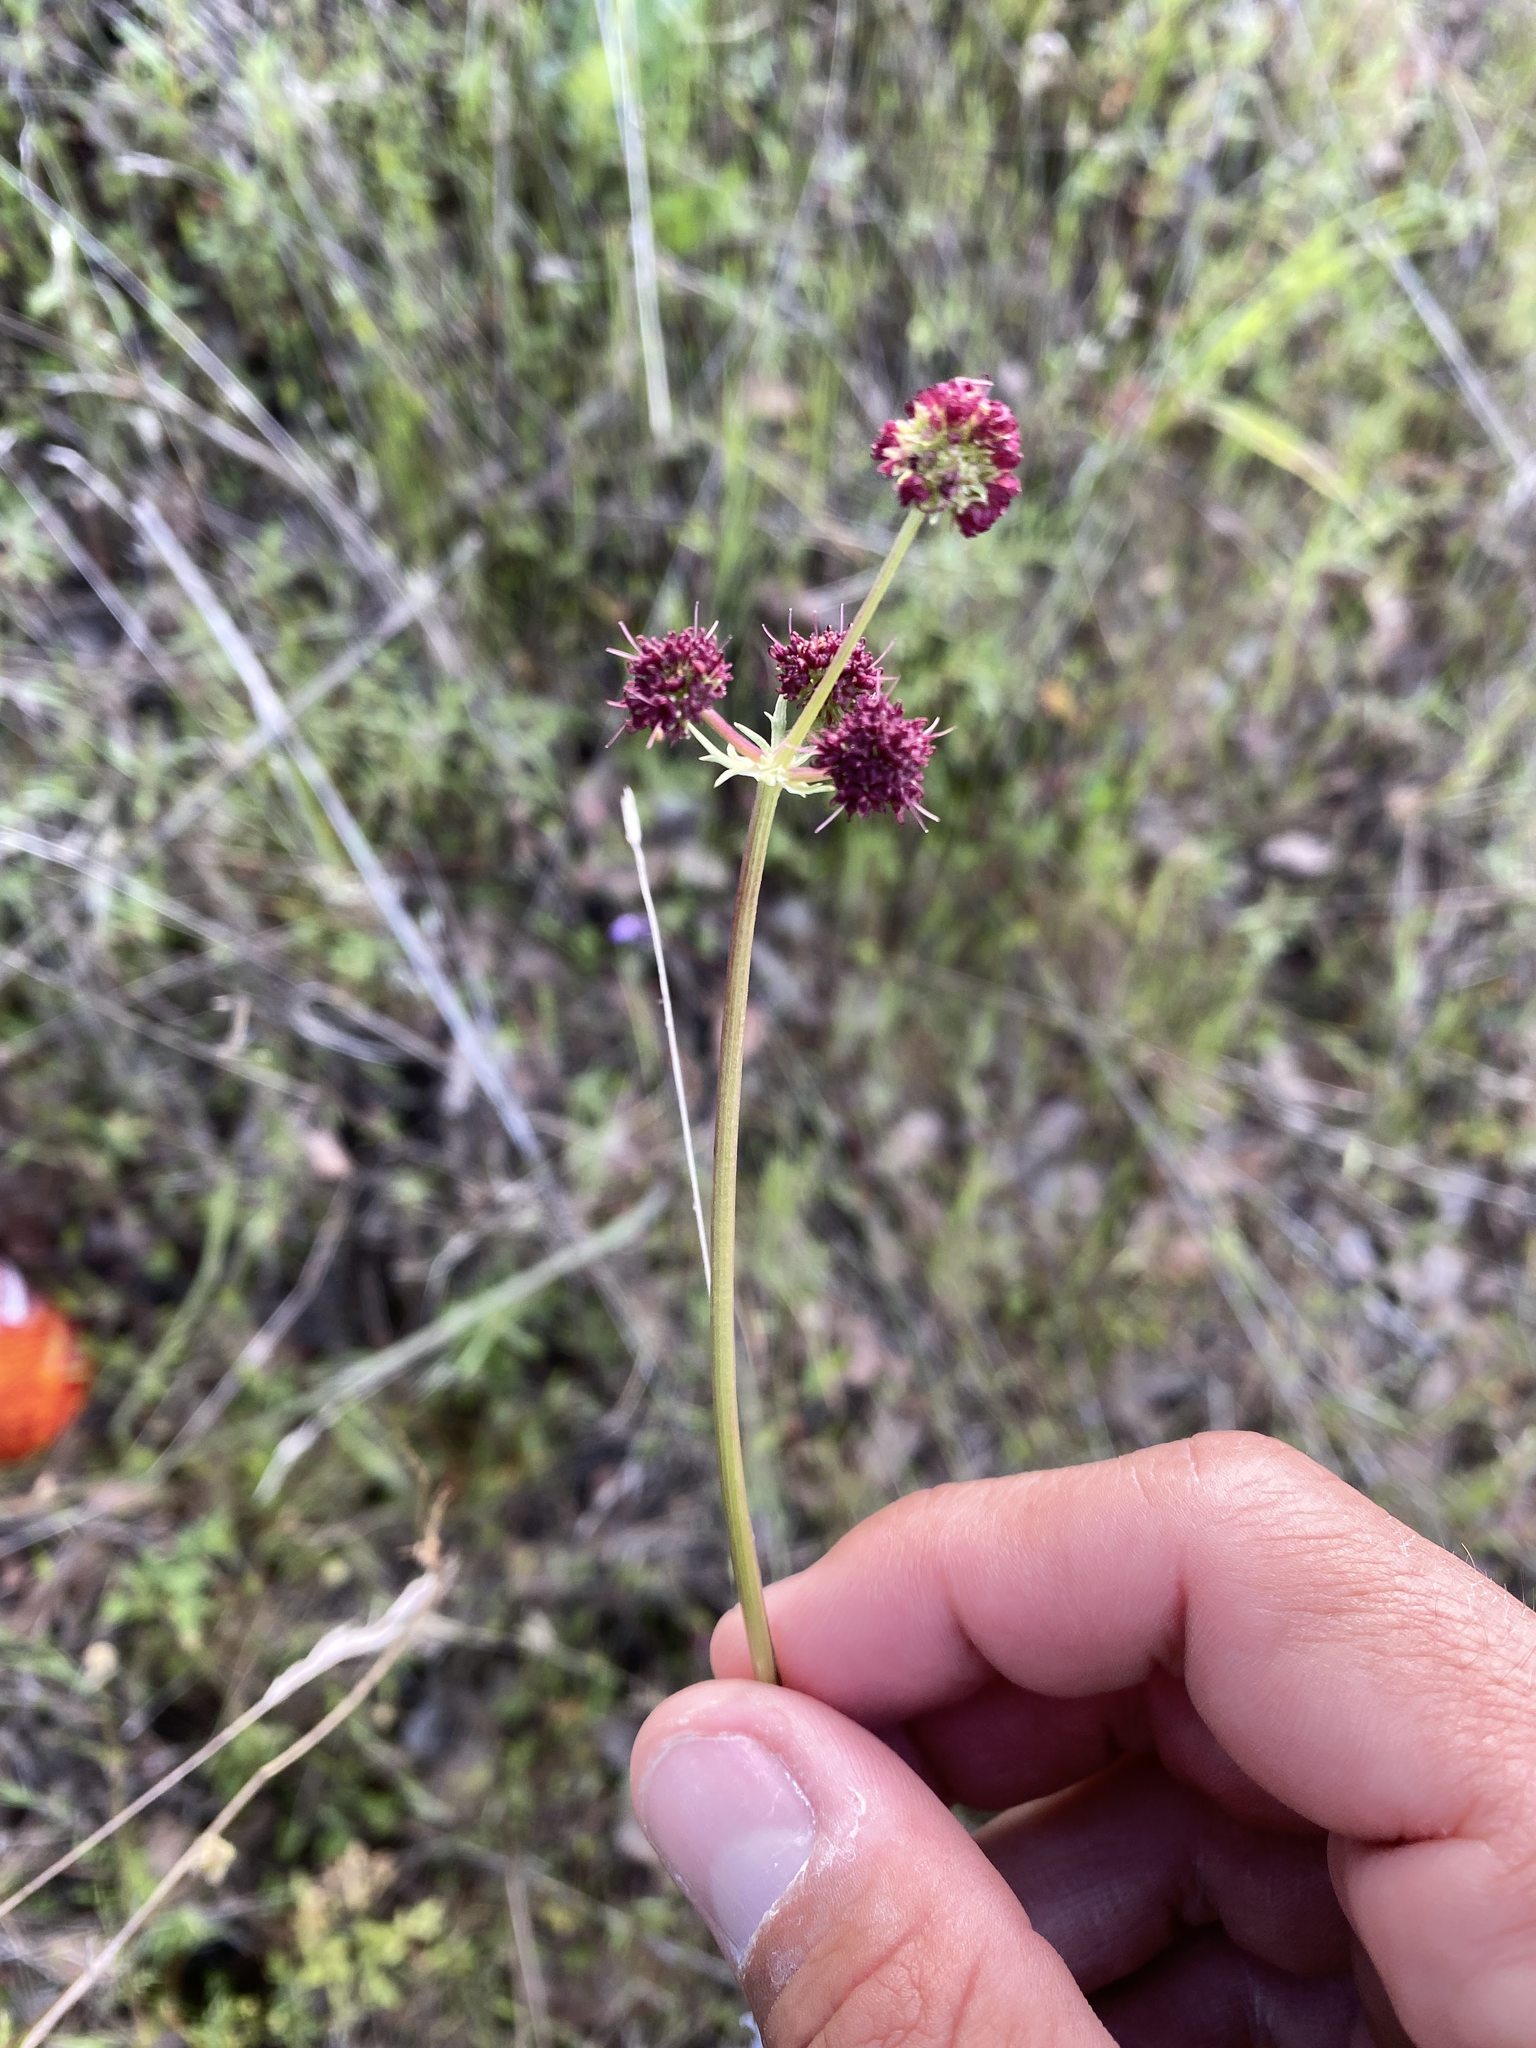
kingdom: Plantae
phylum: Tracheophyta
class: Magnoliopsida
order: Apiales
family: Apiaceae
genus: Sanicula
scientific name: Sanicula bipinnatifida
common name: Shoe-buttons
